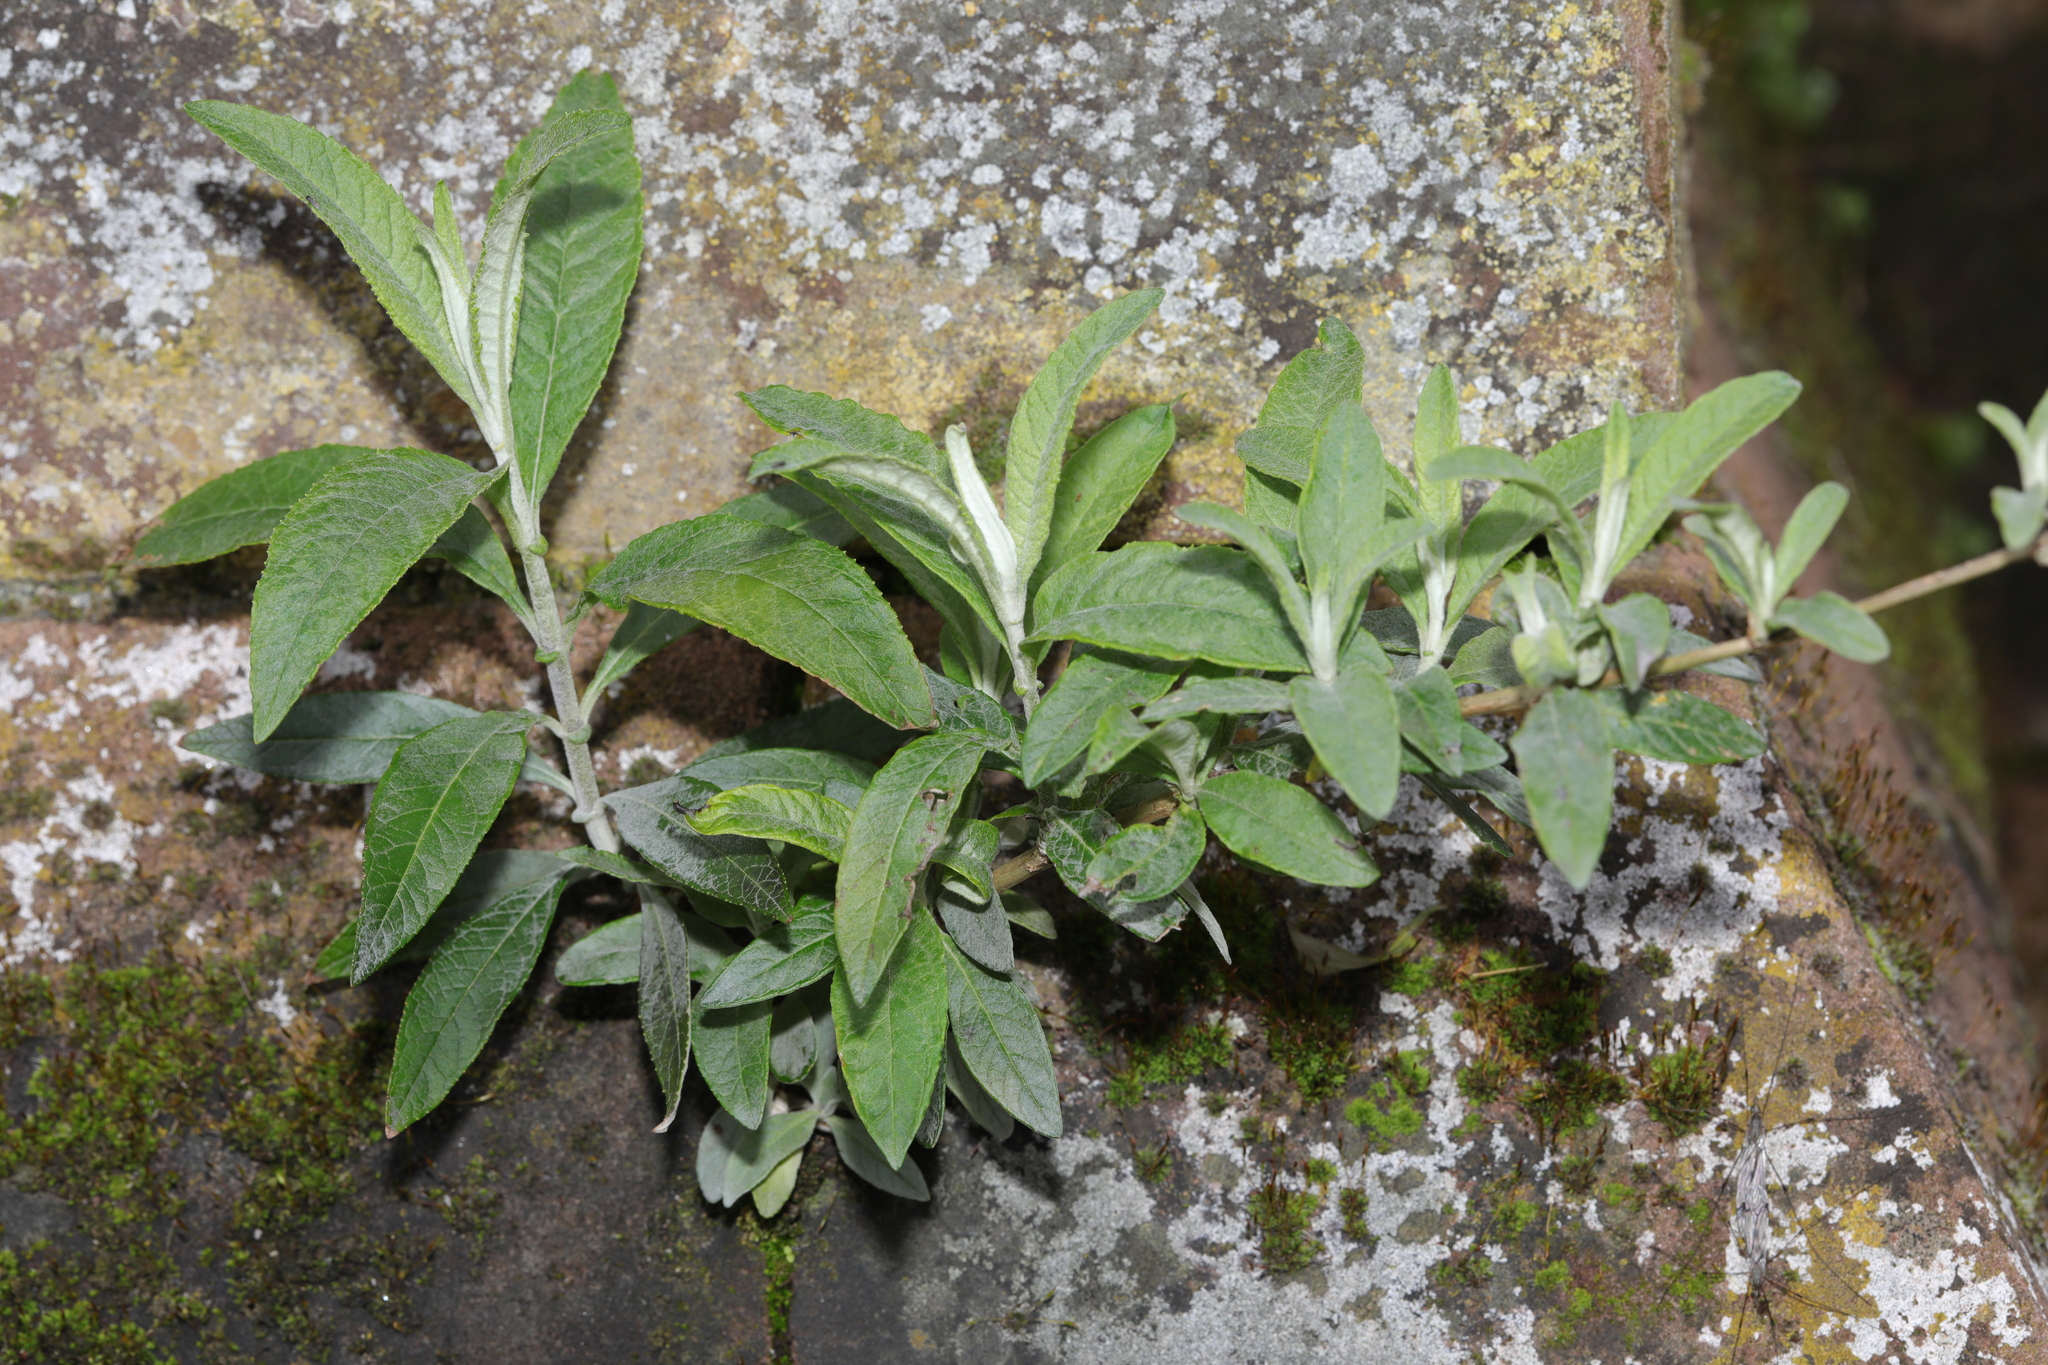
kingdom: Plantae
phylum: Tracheophyta
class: Magnoliopsida
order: Lamiales
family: Scrophulariaceae
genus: Buddleja
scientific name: Buddleja davidii
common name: Butterfly-bush
